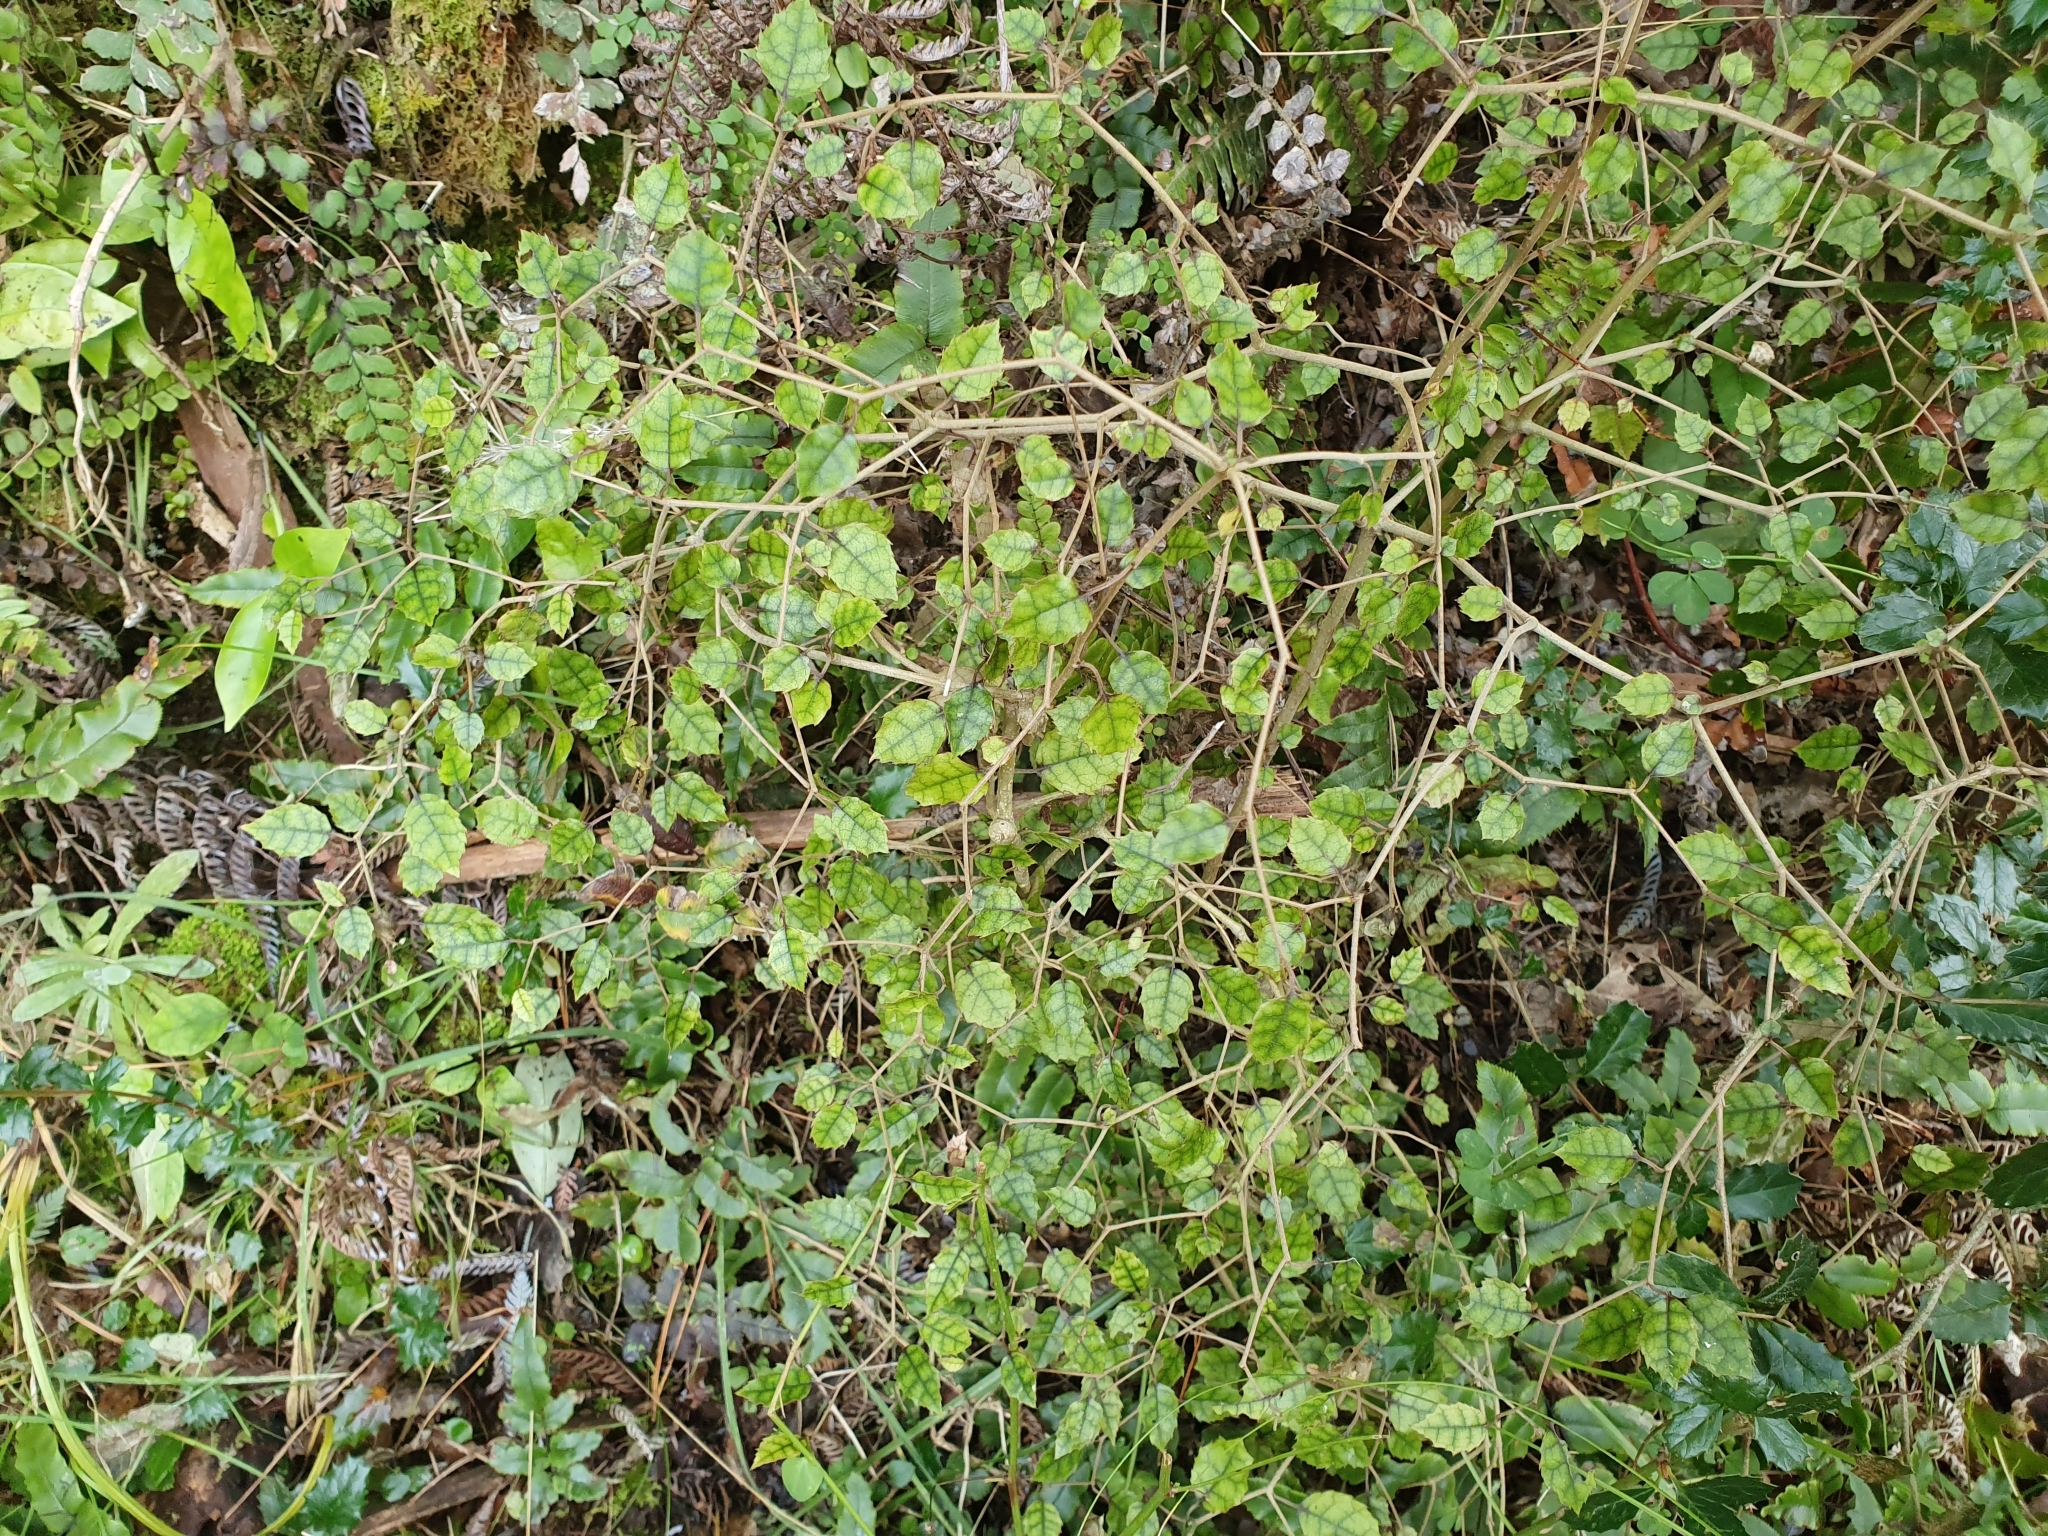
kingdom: Plantae
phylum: Tracheophyta
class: Magnoliopsida
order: Asterales
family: Rousseaceae
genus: Carpodetus
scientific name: Carpodetus serratus
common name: White mapau
